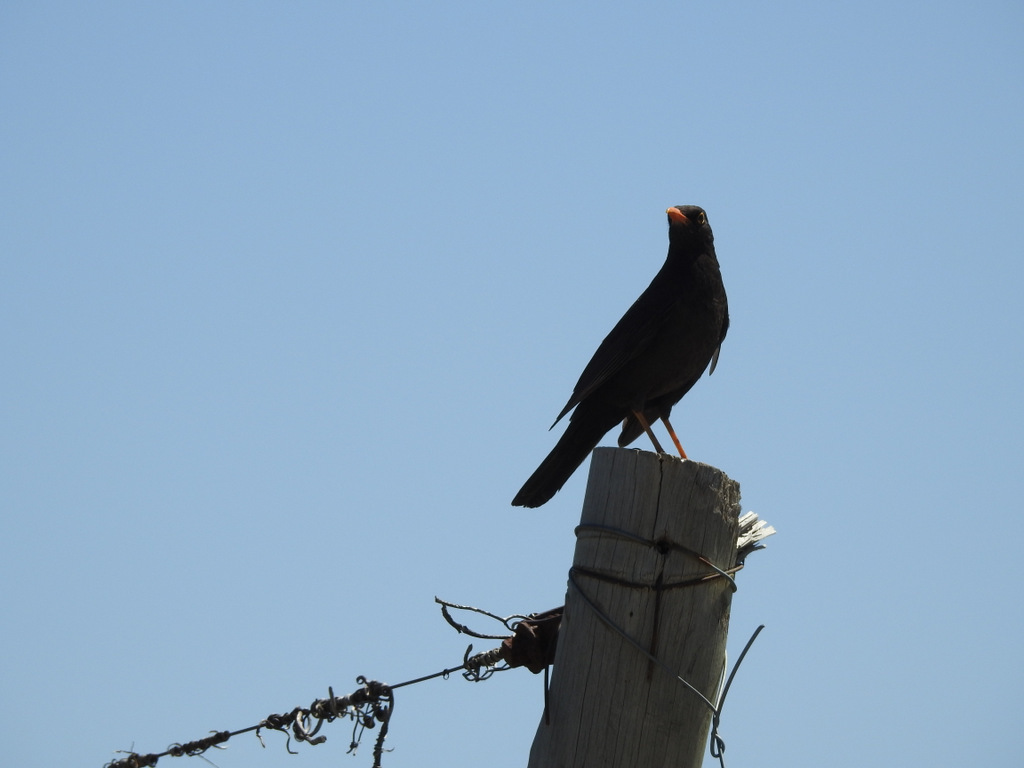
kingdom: Animalia
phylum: Chordata
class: Aves
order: Passeriformes
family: Turdidae
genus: Turdus
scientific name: Turdus chiguanco
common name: Chiguanco thrush
